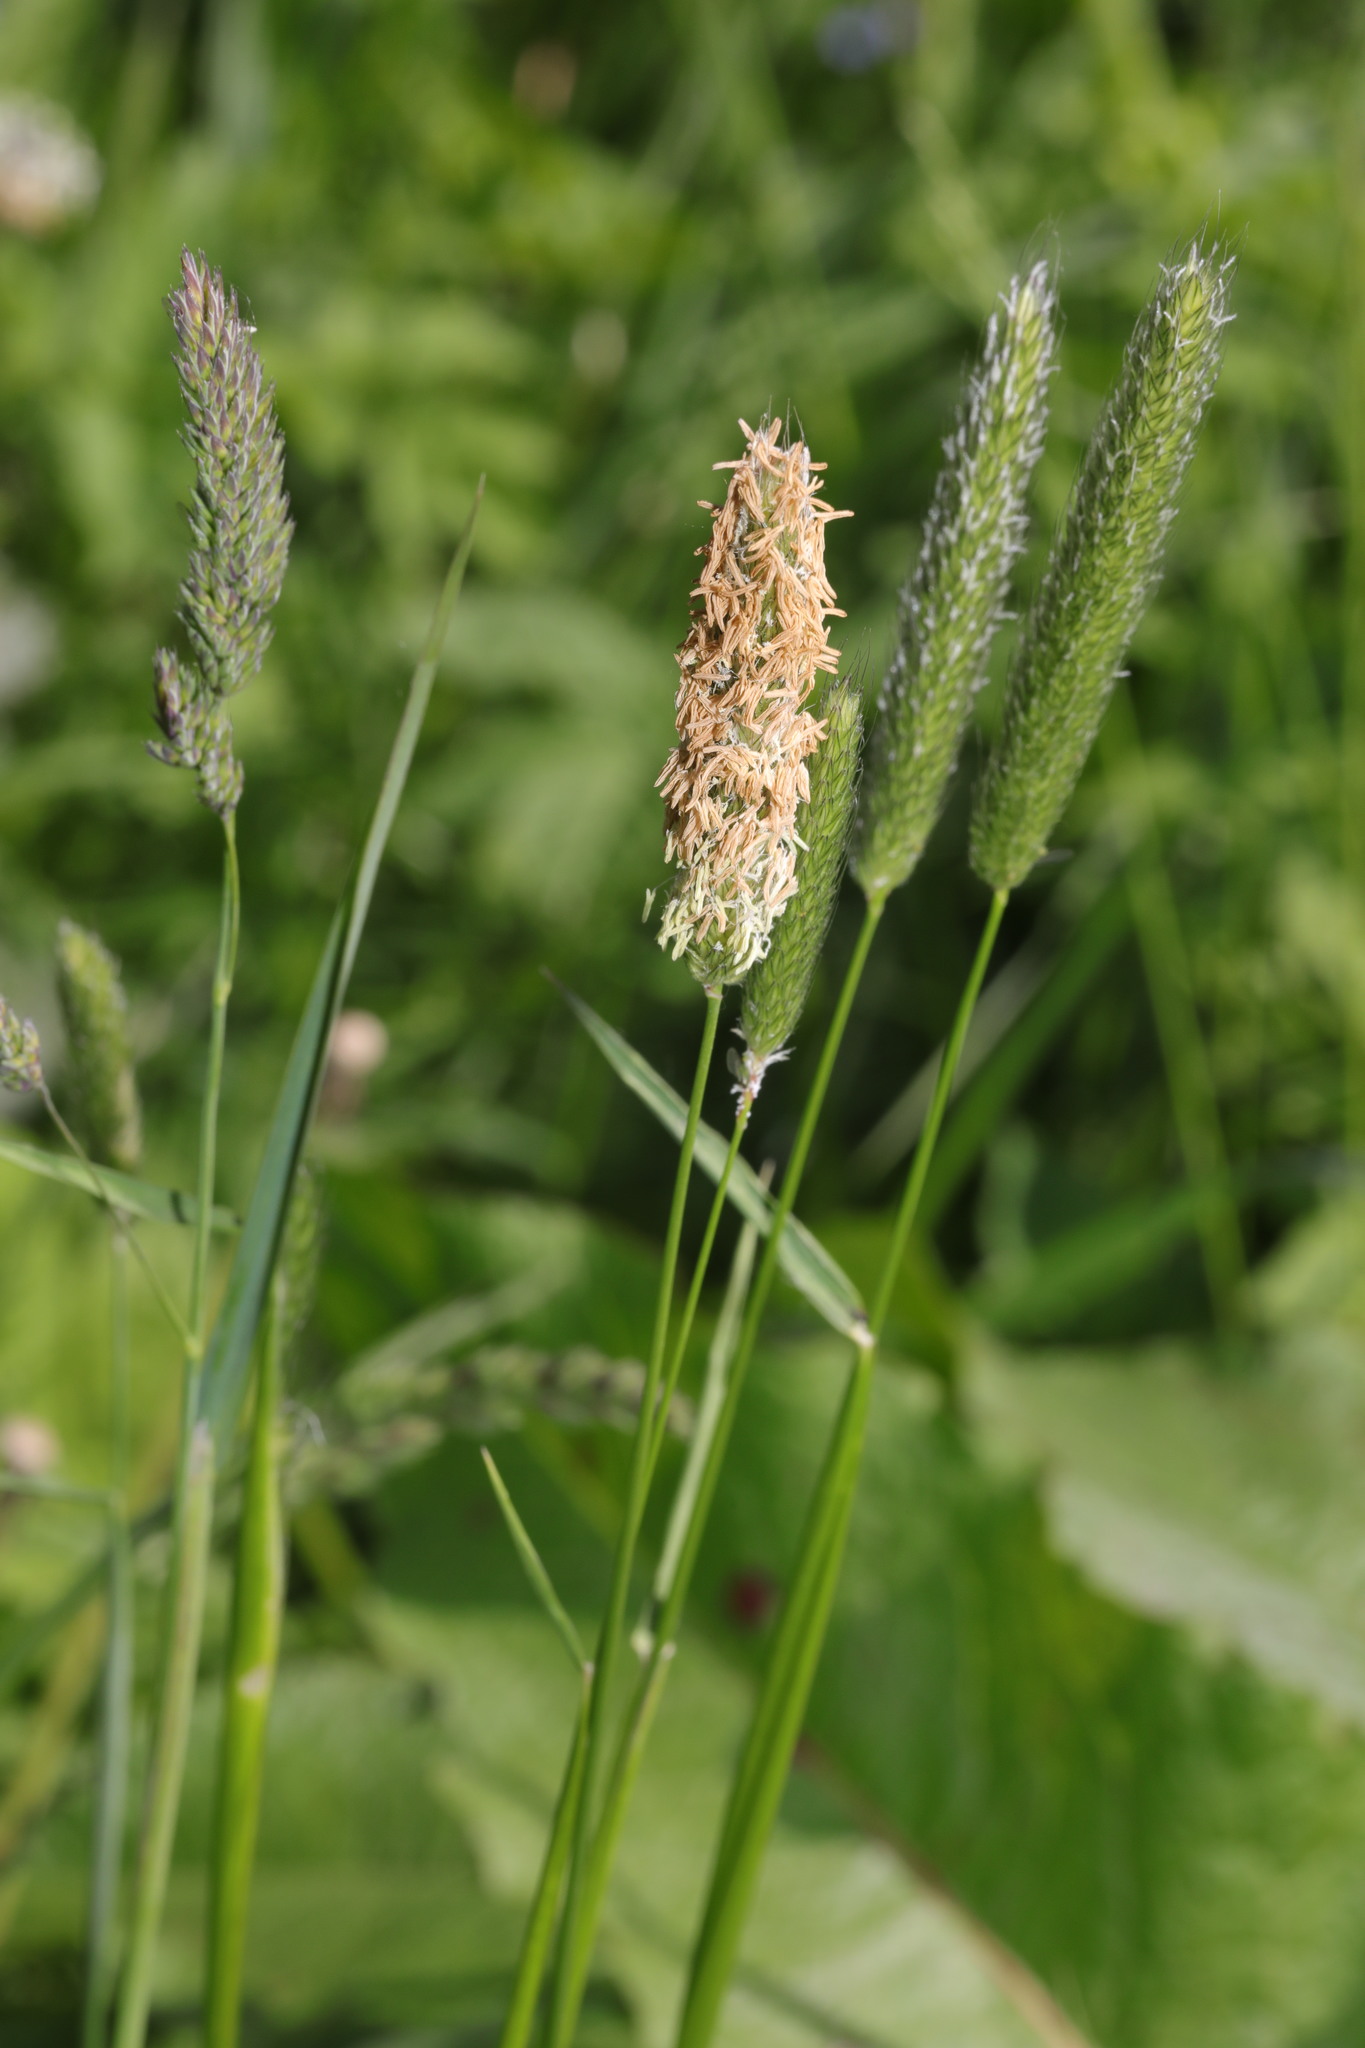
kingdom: Plantae
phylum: Tracheophyta
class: Liliopsida
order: Poales
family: Poaceae
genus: Alopecurus
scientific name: Alopecurus pratensis
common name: Meadow foxtail
